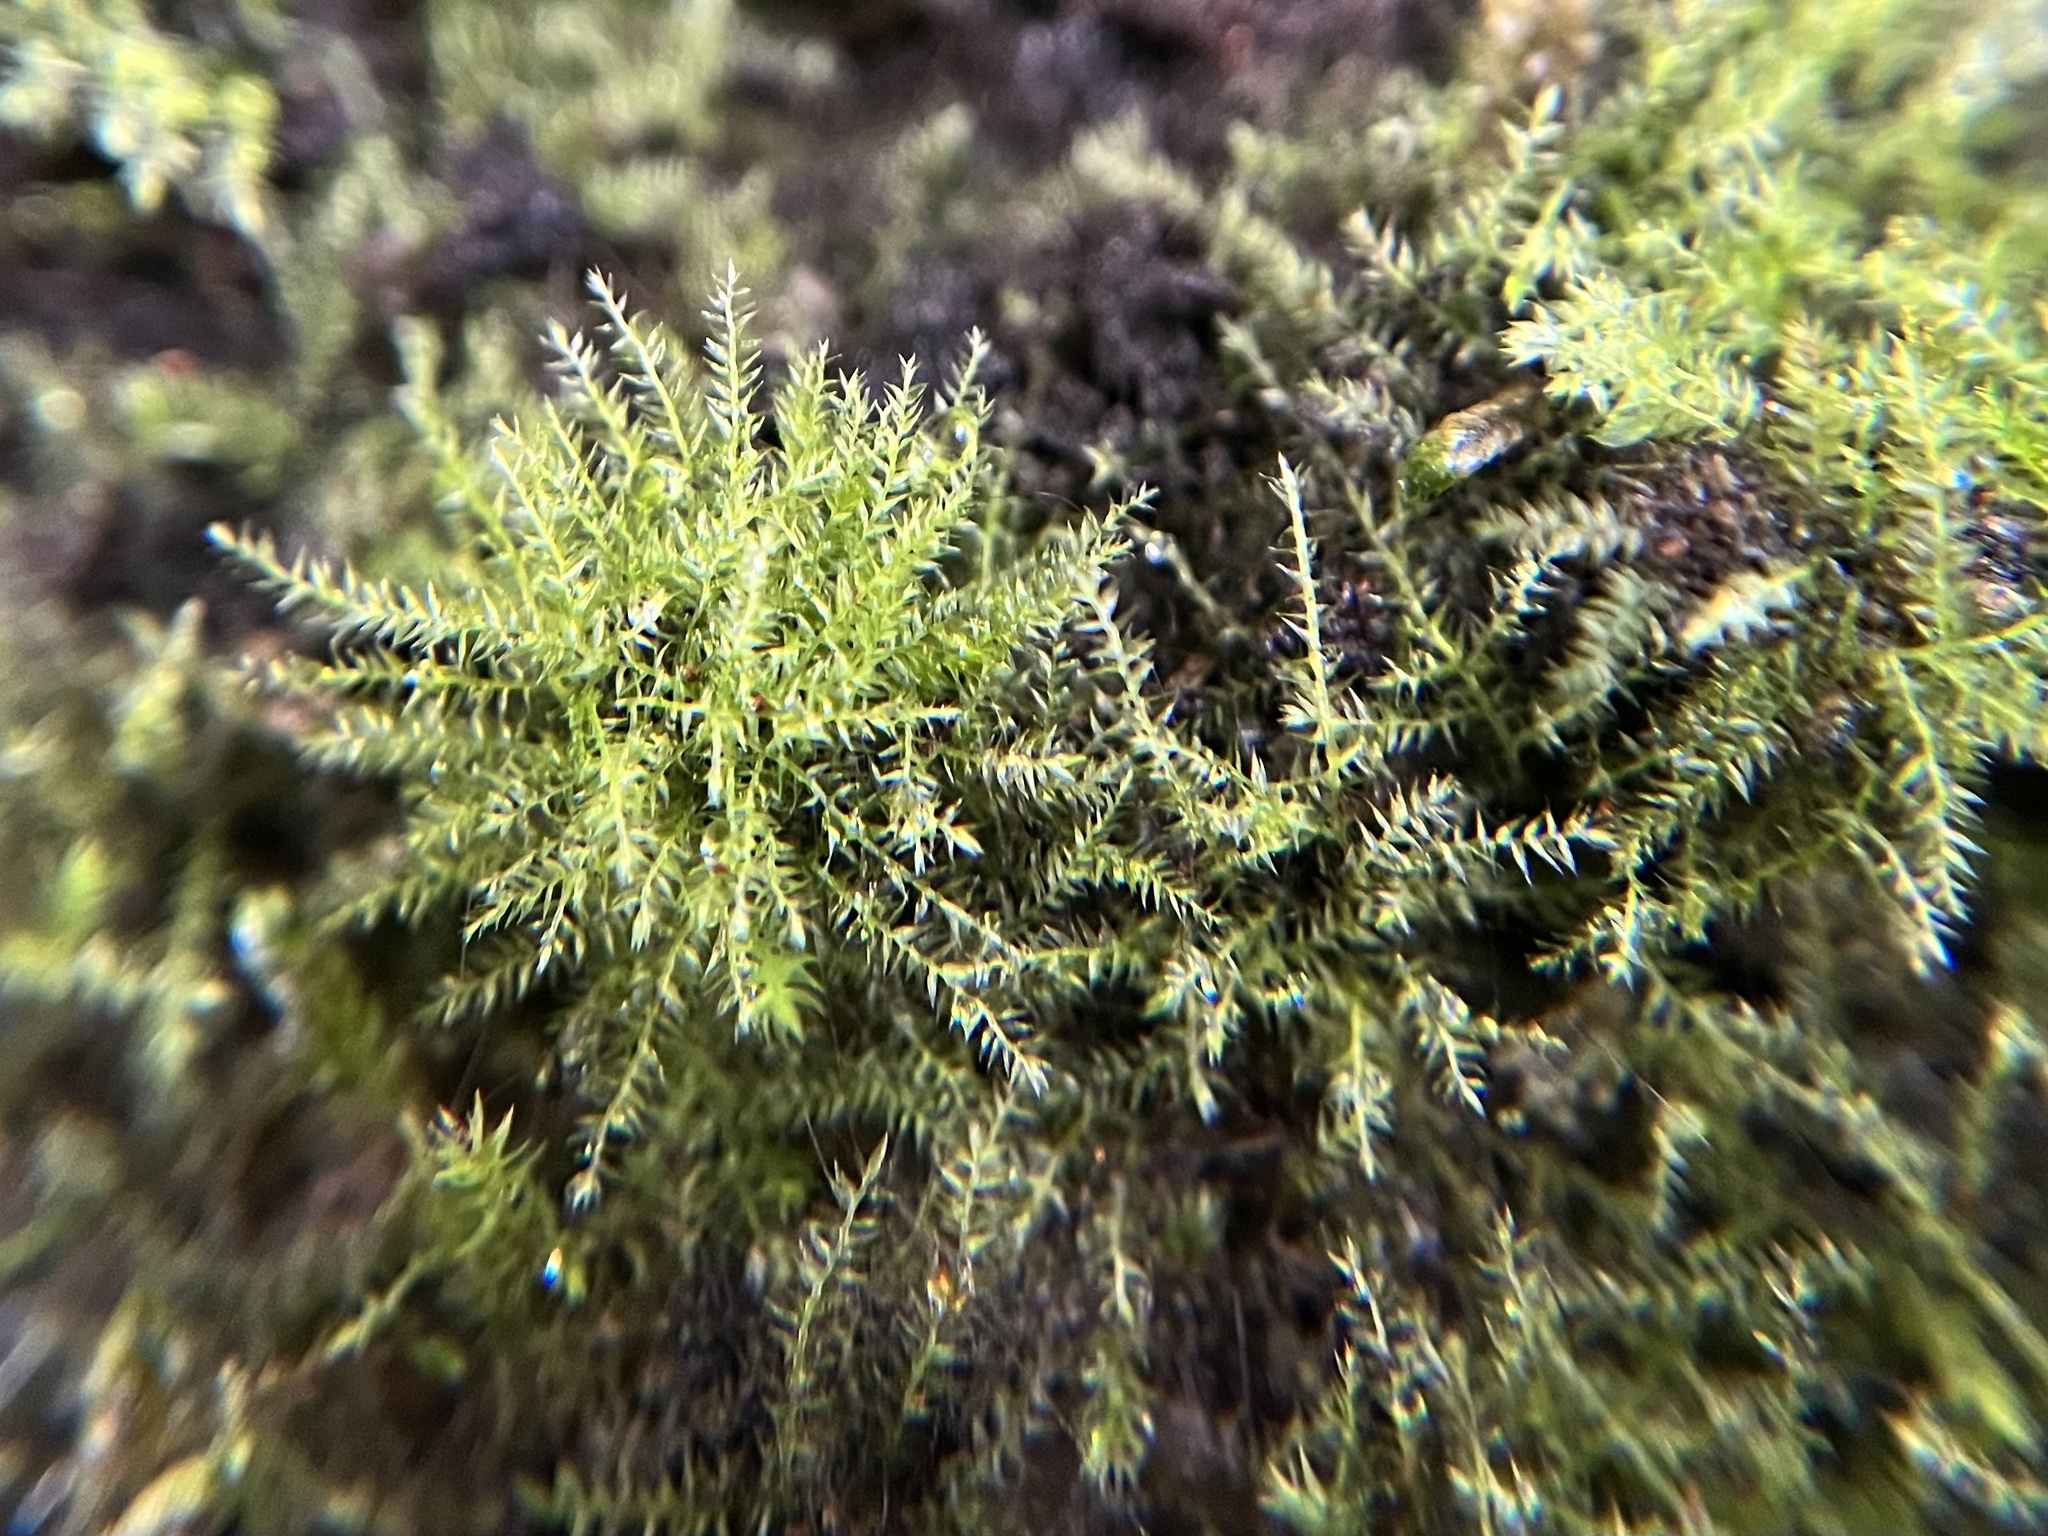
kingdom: Plantae
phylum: Bryophyta
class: Bryopsida
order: Hypnales
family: Brachytheciaceae
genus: Oxyrrhynchium
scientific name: Oxyrrhynchium hians
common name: Spreading beaked moss
